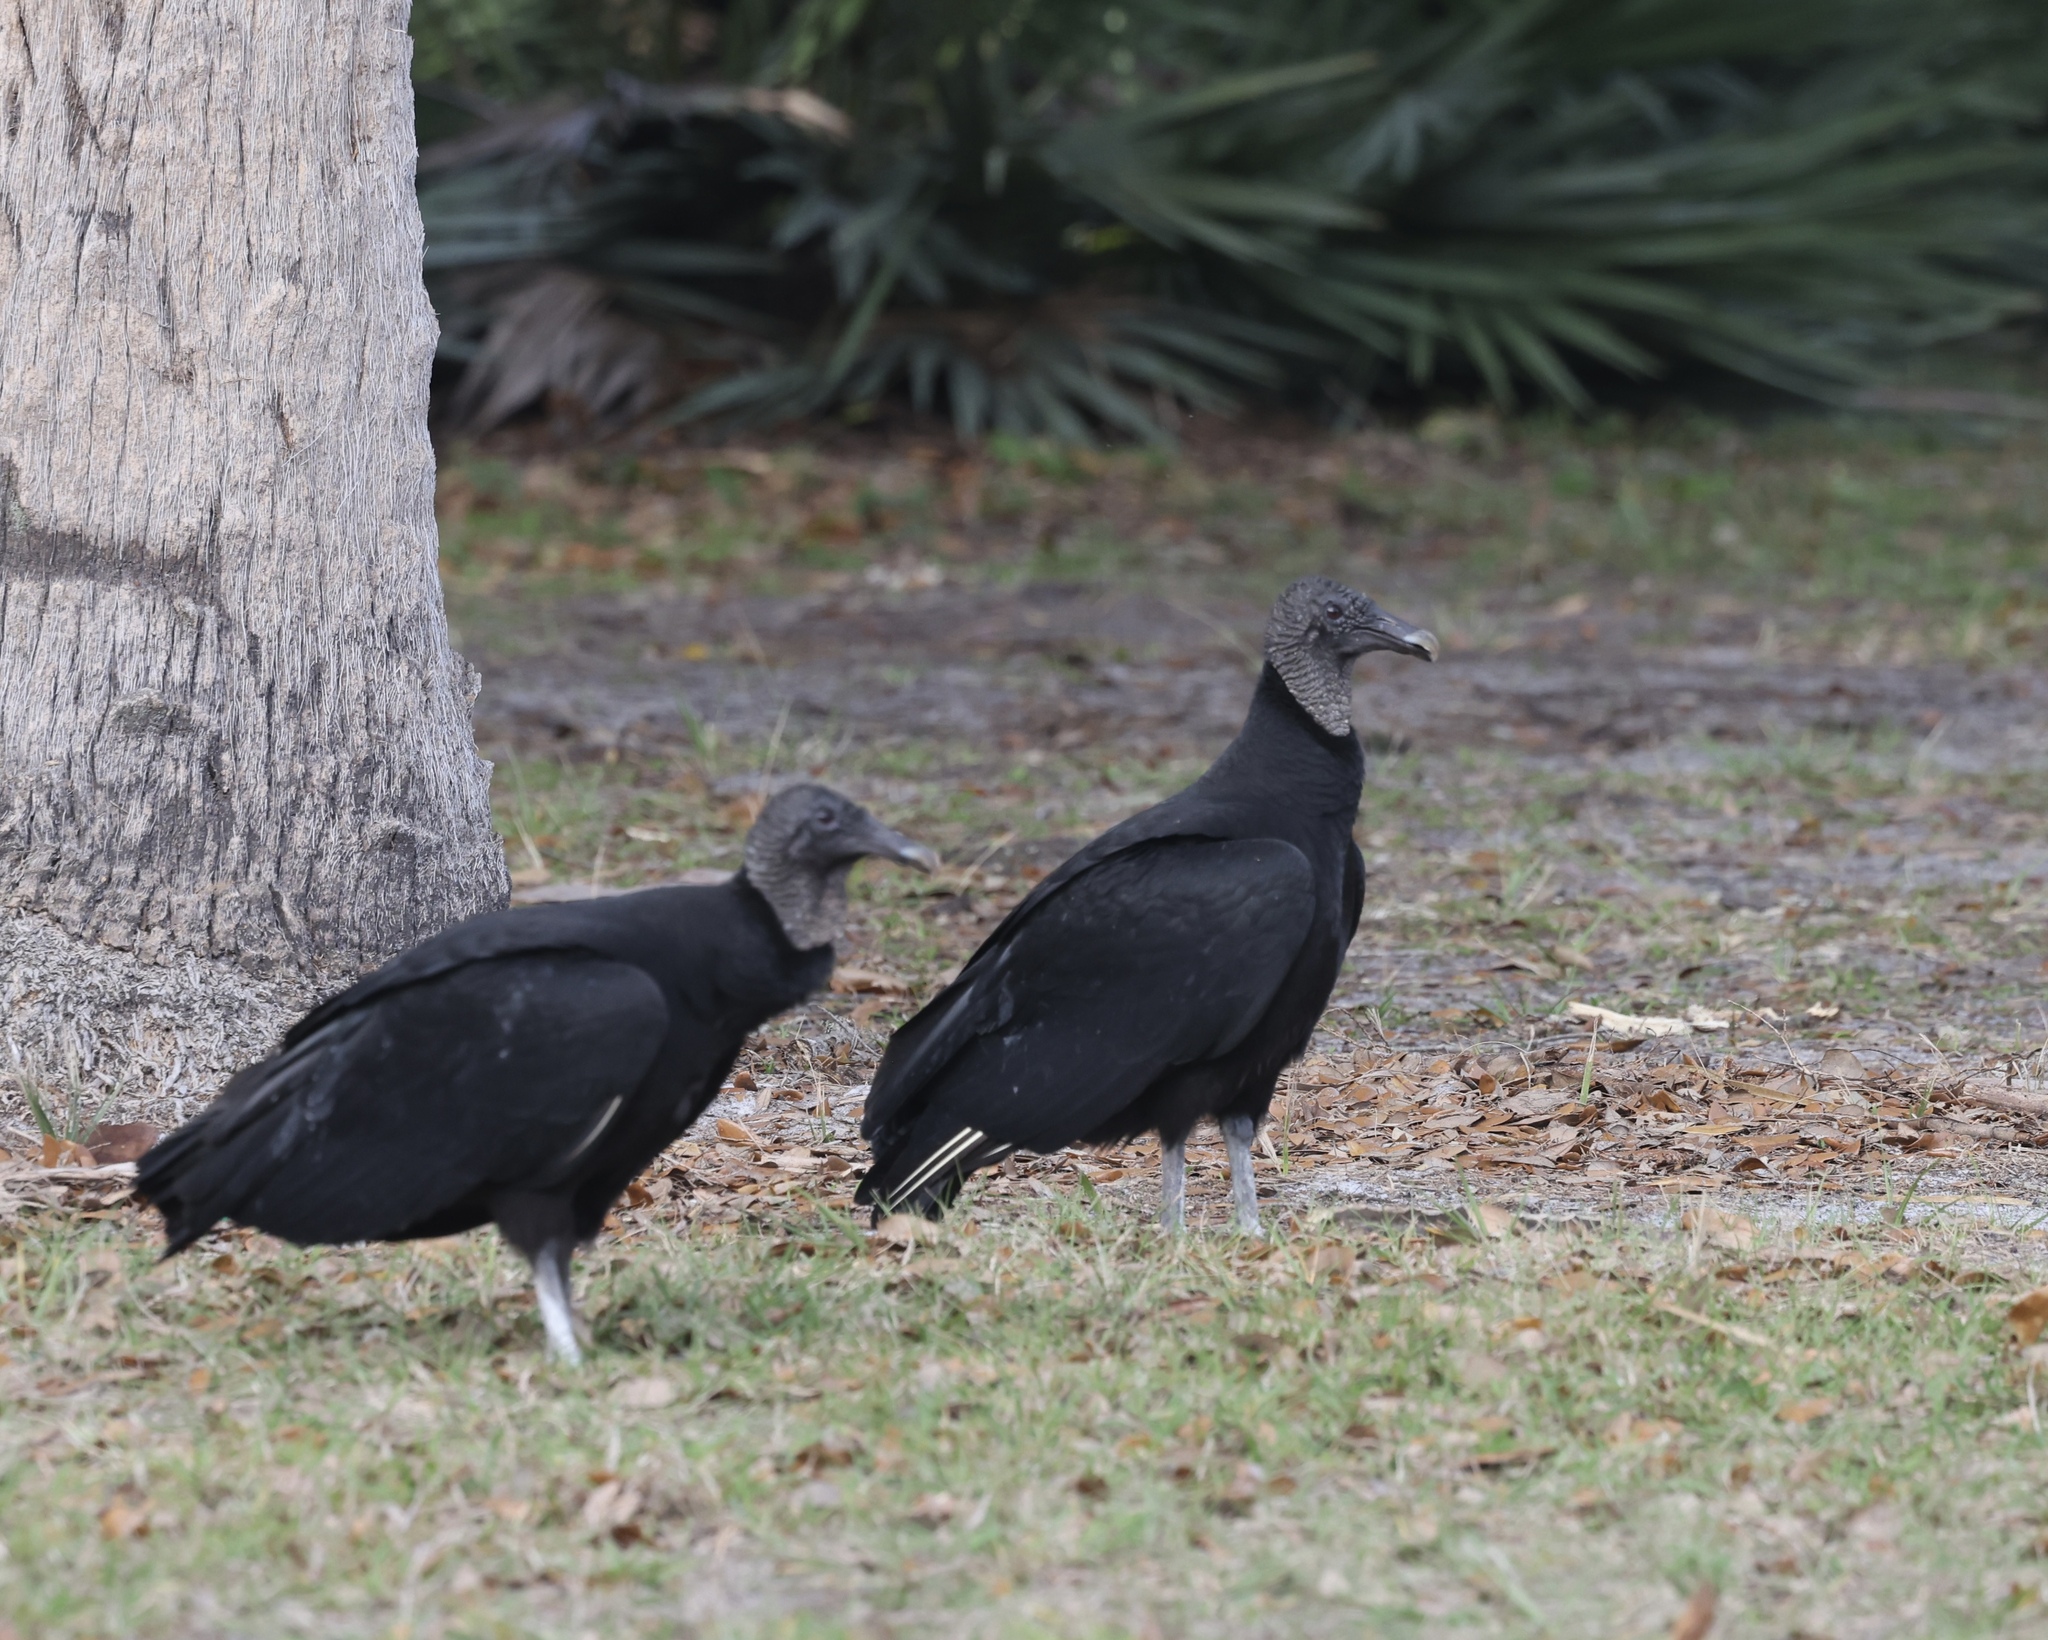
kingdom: Animalia
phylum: Chordata
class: Aves
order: Accipitriformes
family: Cathartidae
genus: Coragyps
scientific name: Coragyps atratus
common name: Black vulture
